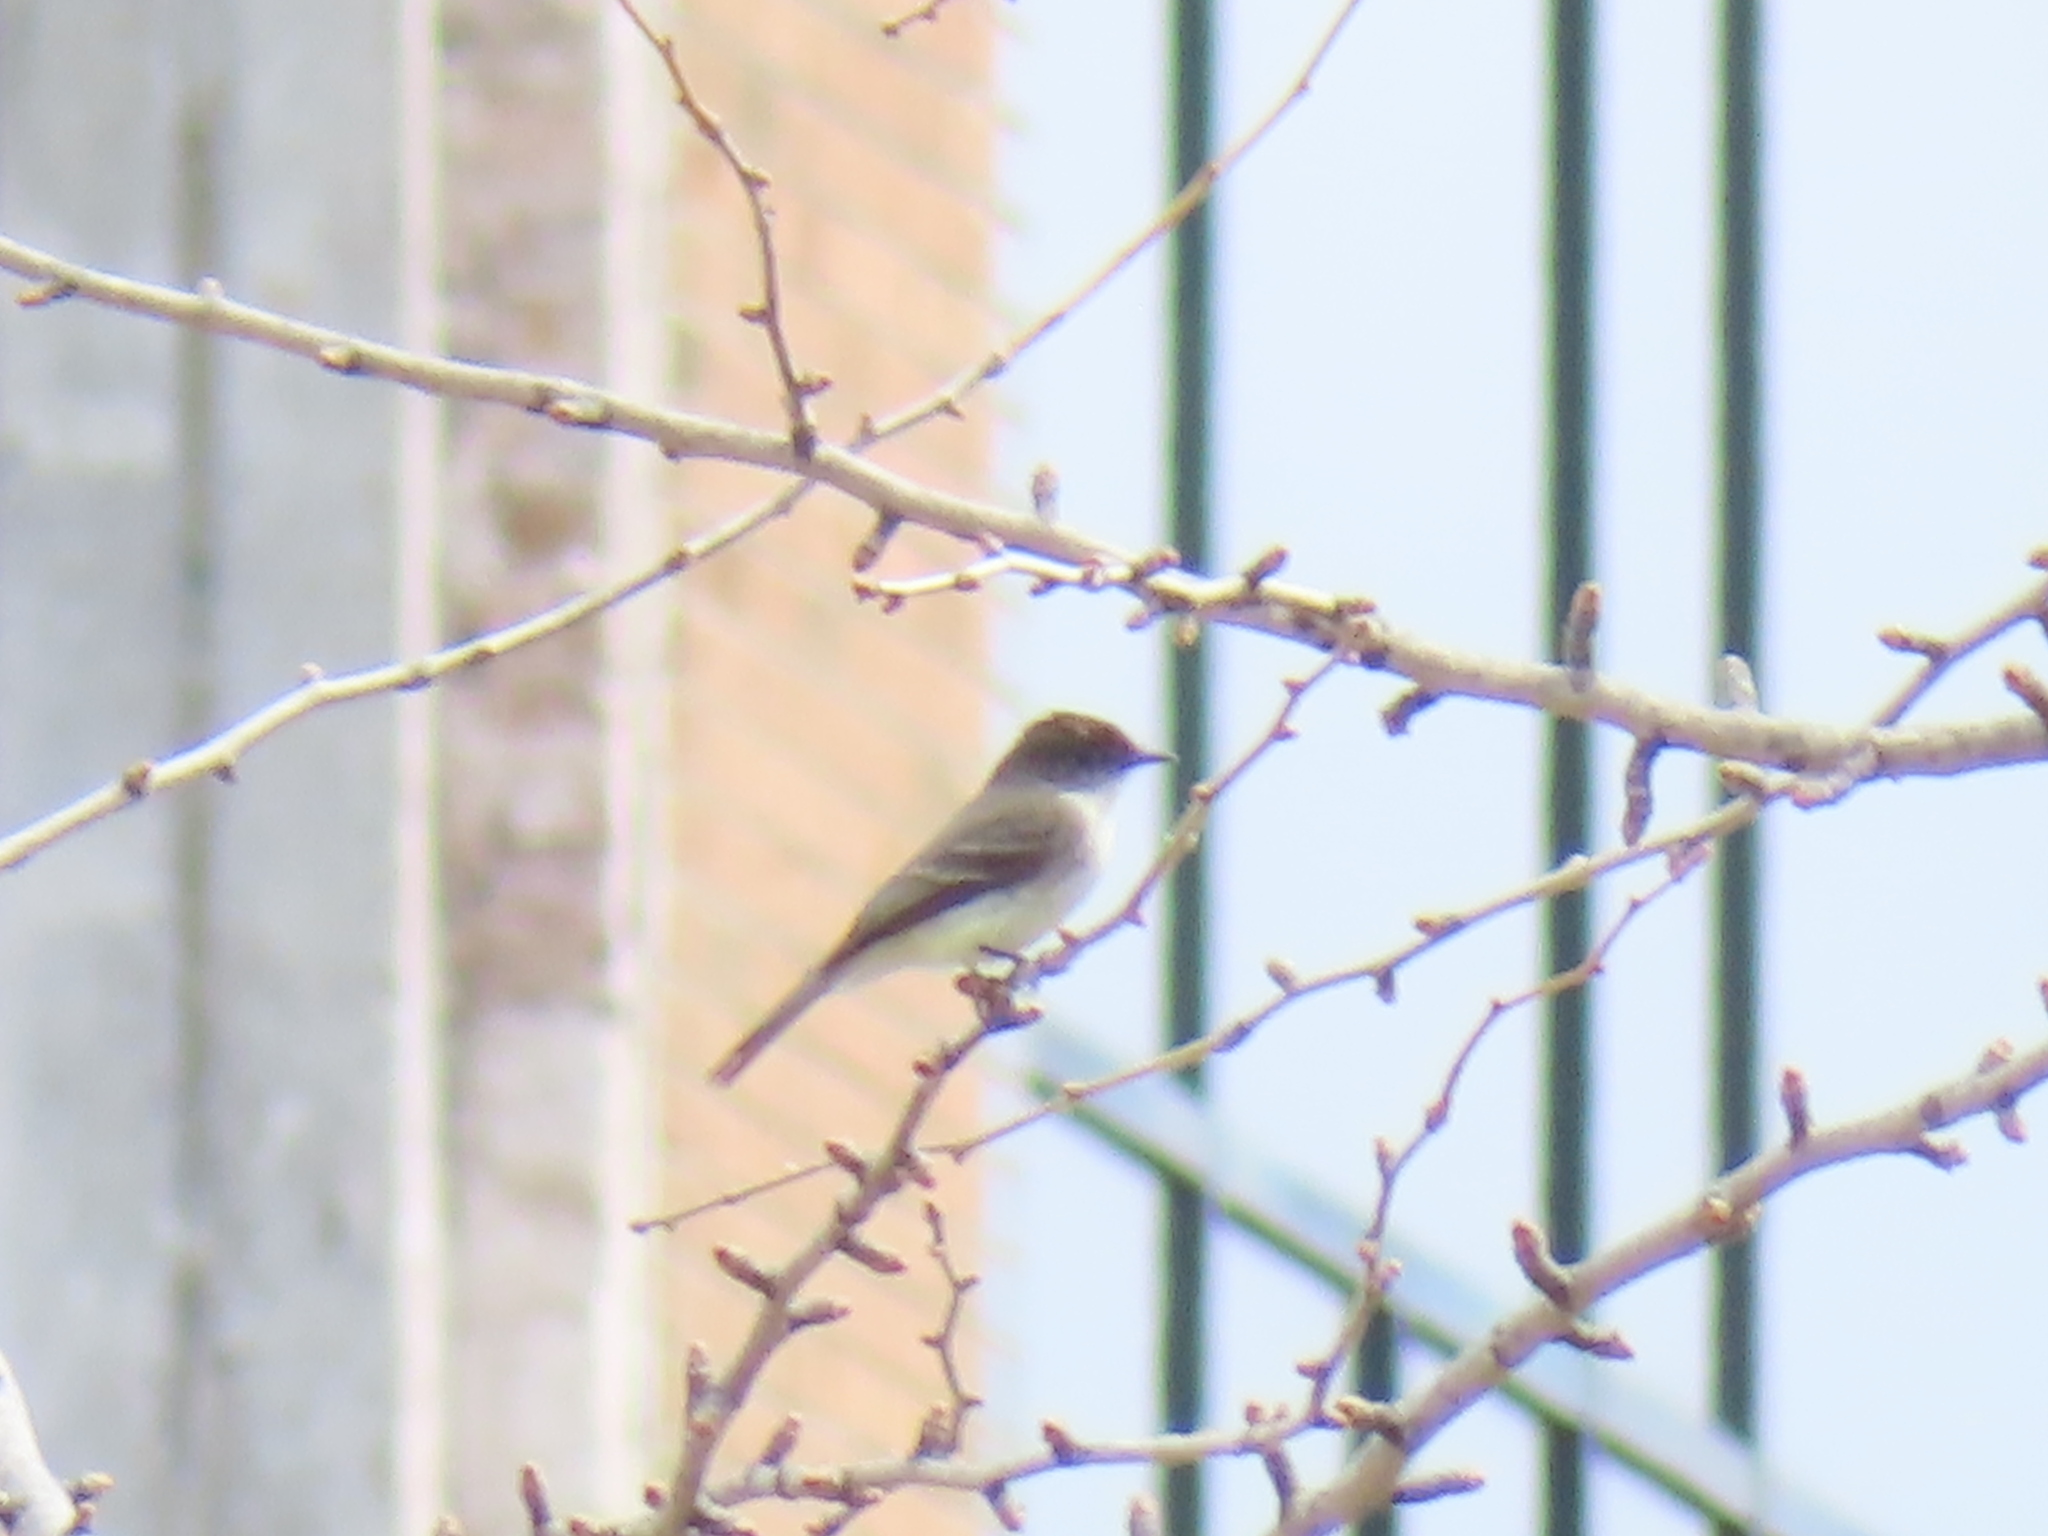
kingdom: Animalia
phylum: Chordata
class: Aves
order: Passeriformes
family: Tyrannidae
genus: Sayornis
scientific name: Sayornis phoebe
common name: Eastern phoebe
